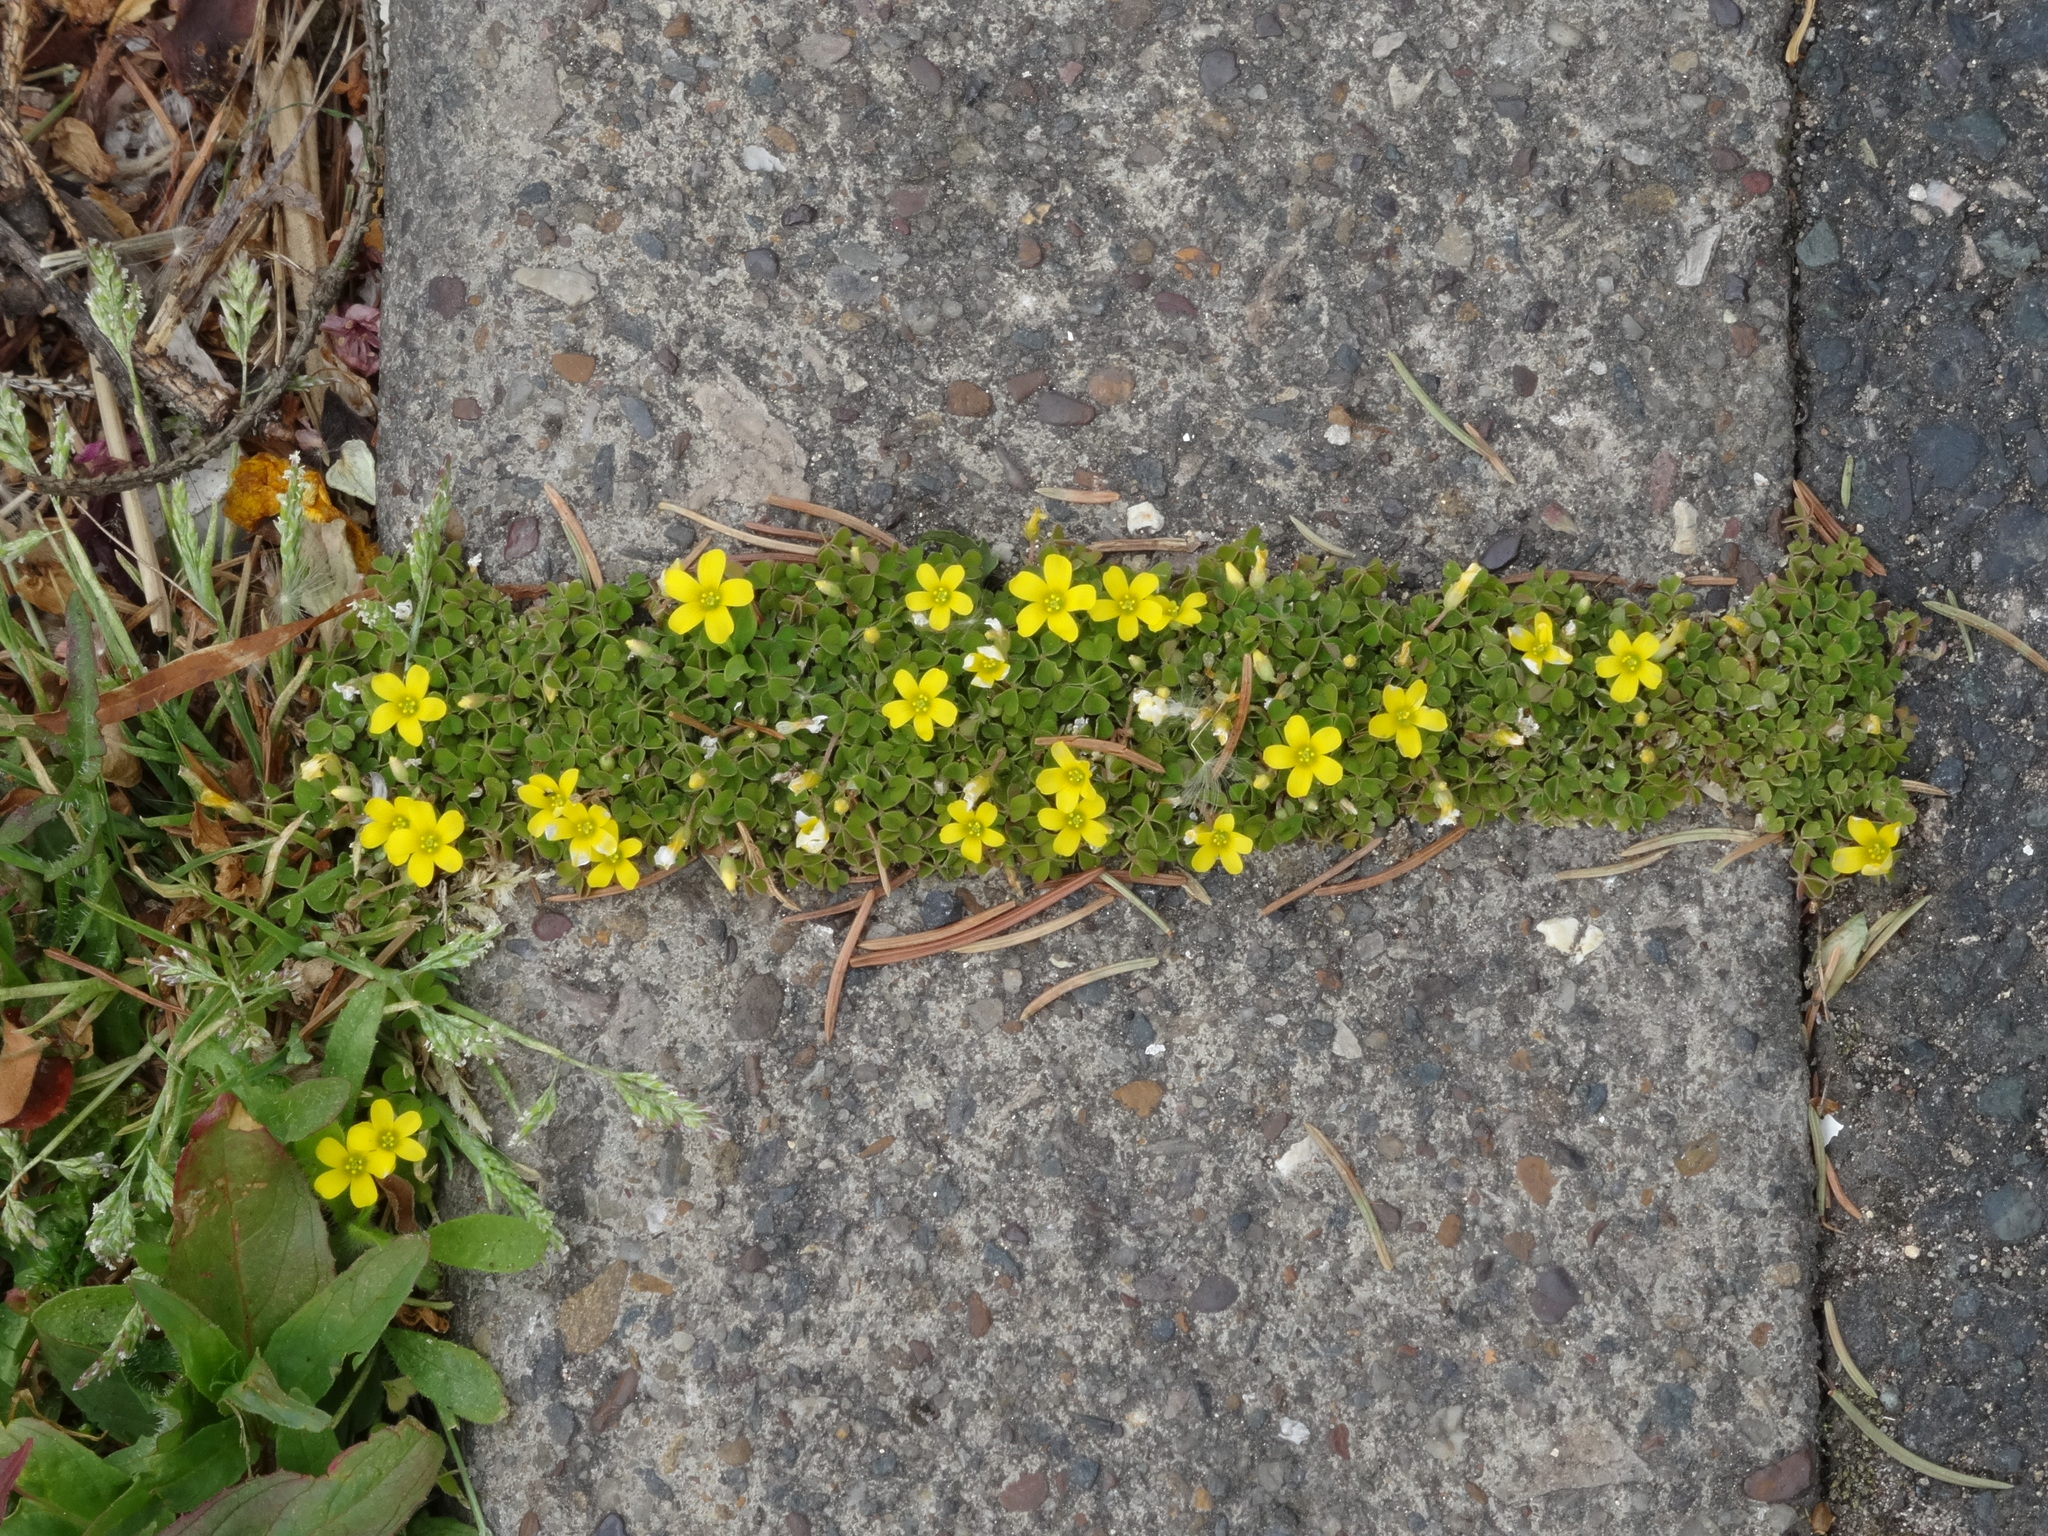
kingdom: Plantae
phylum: Tracheophyta
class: Magnoliopsida
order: Oxalidales
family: Oxalidaceae
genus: Oxalis
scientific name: Oxalis exilis
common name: Least yellow-sorrel
